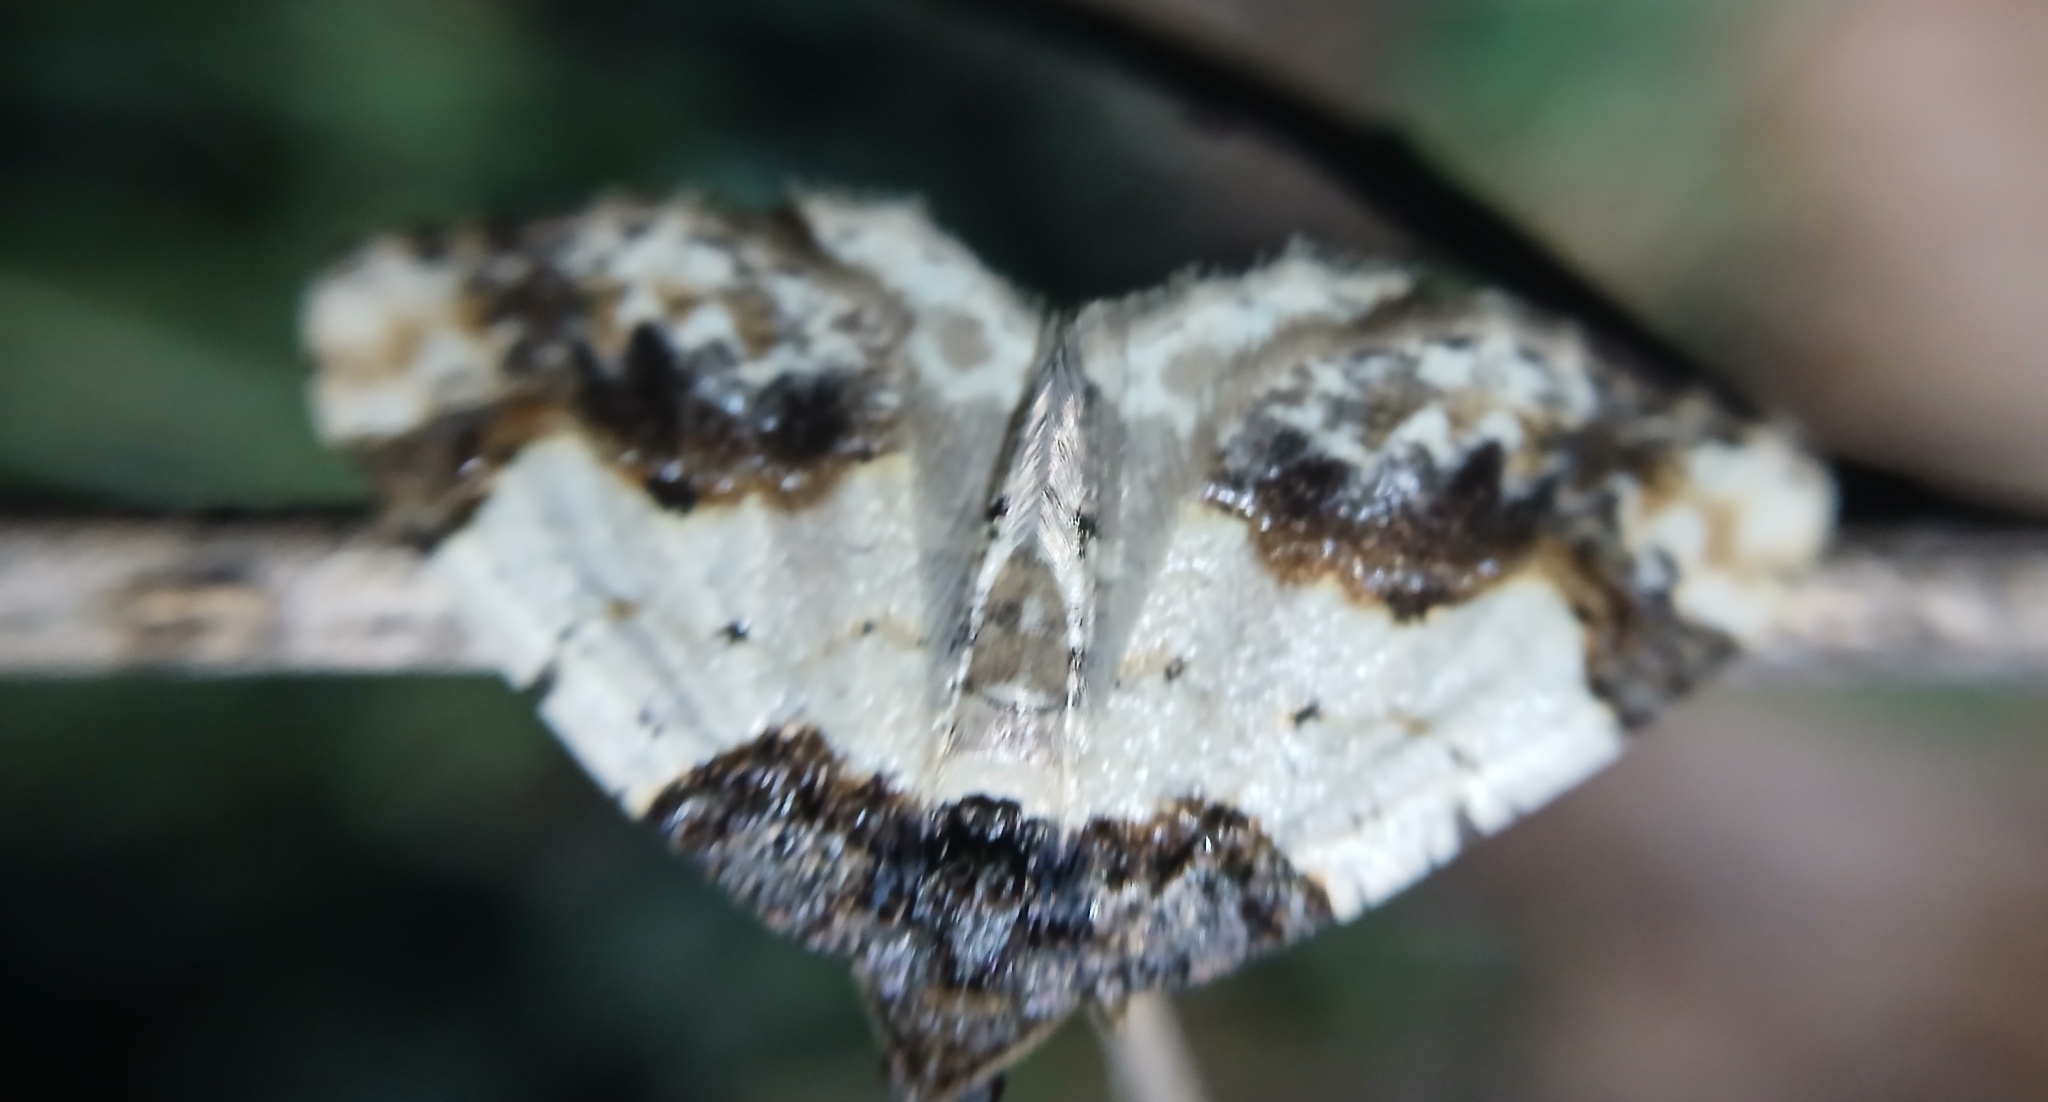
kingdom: Animalia
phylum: Arthropoda
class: Insecta
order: Lepidoptera
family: Geometridae
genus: Ligdia
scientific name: Ligdia adustata
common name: Scorched carpet
